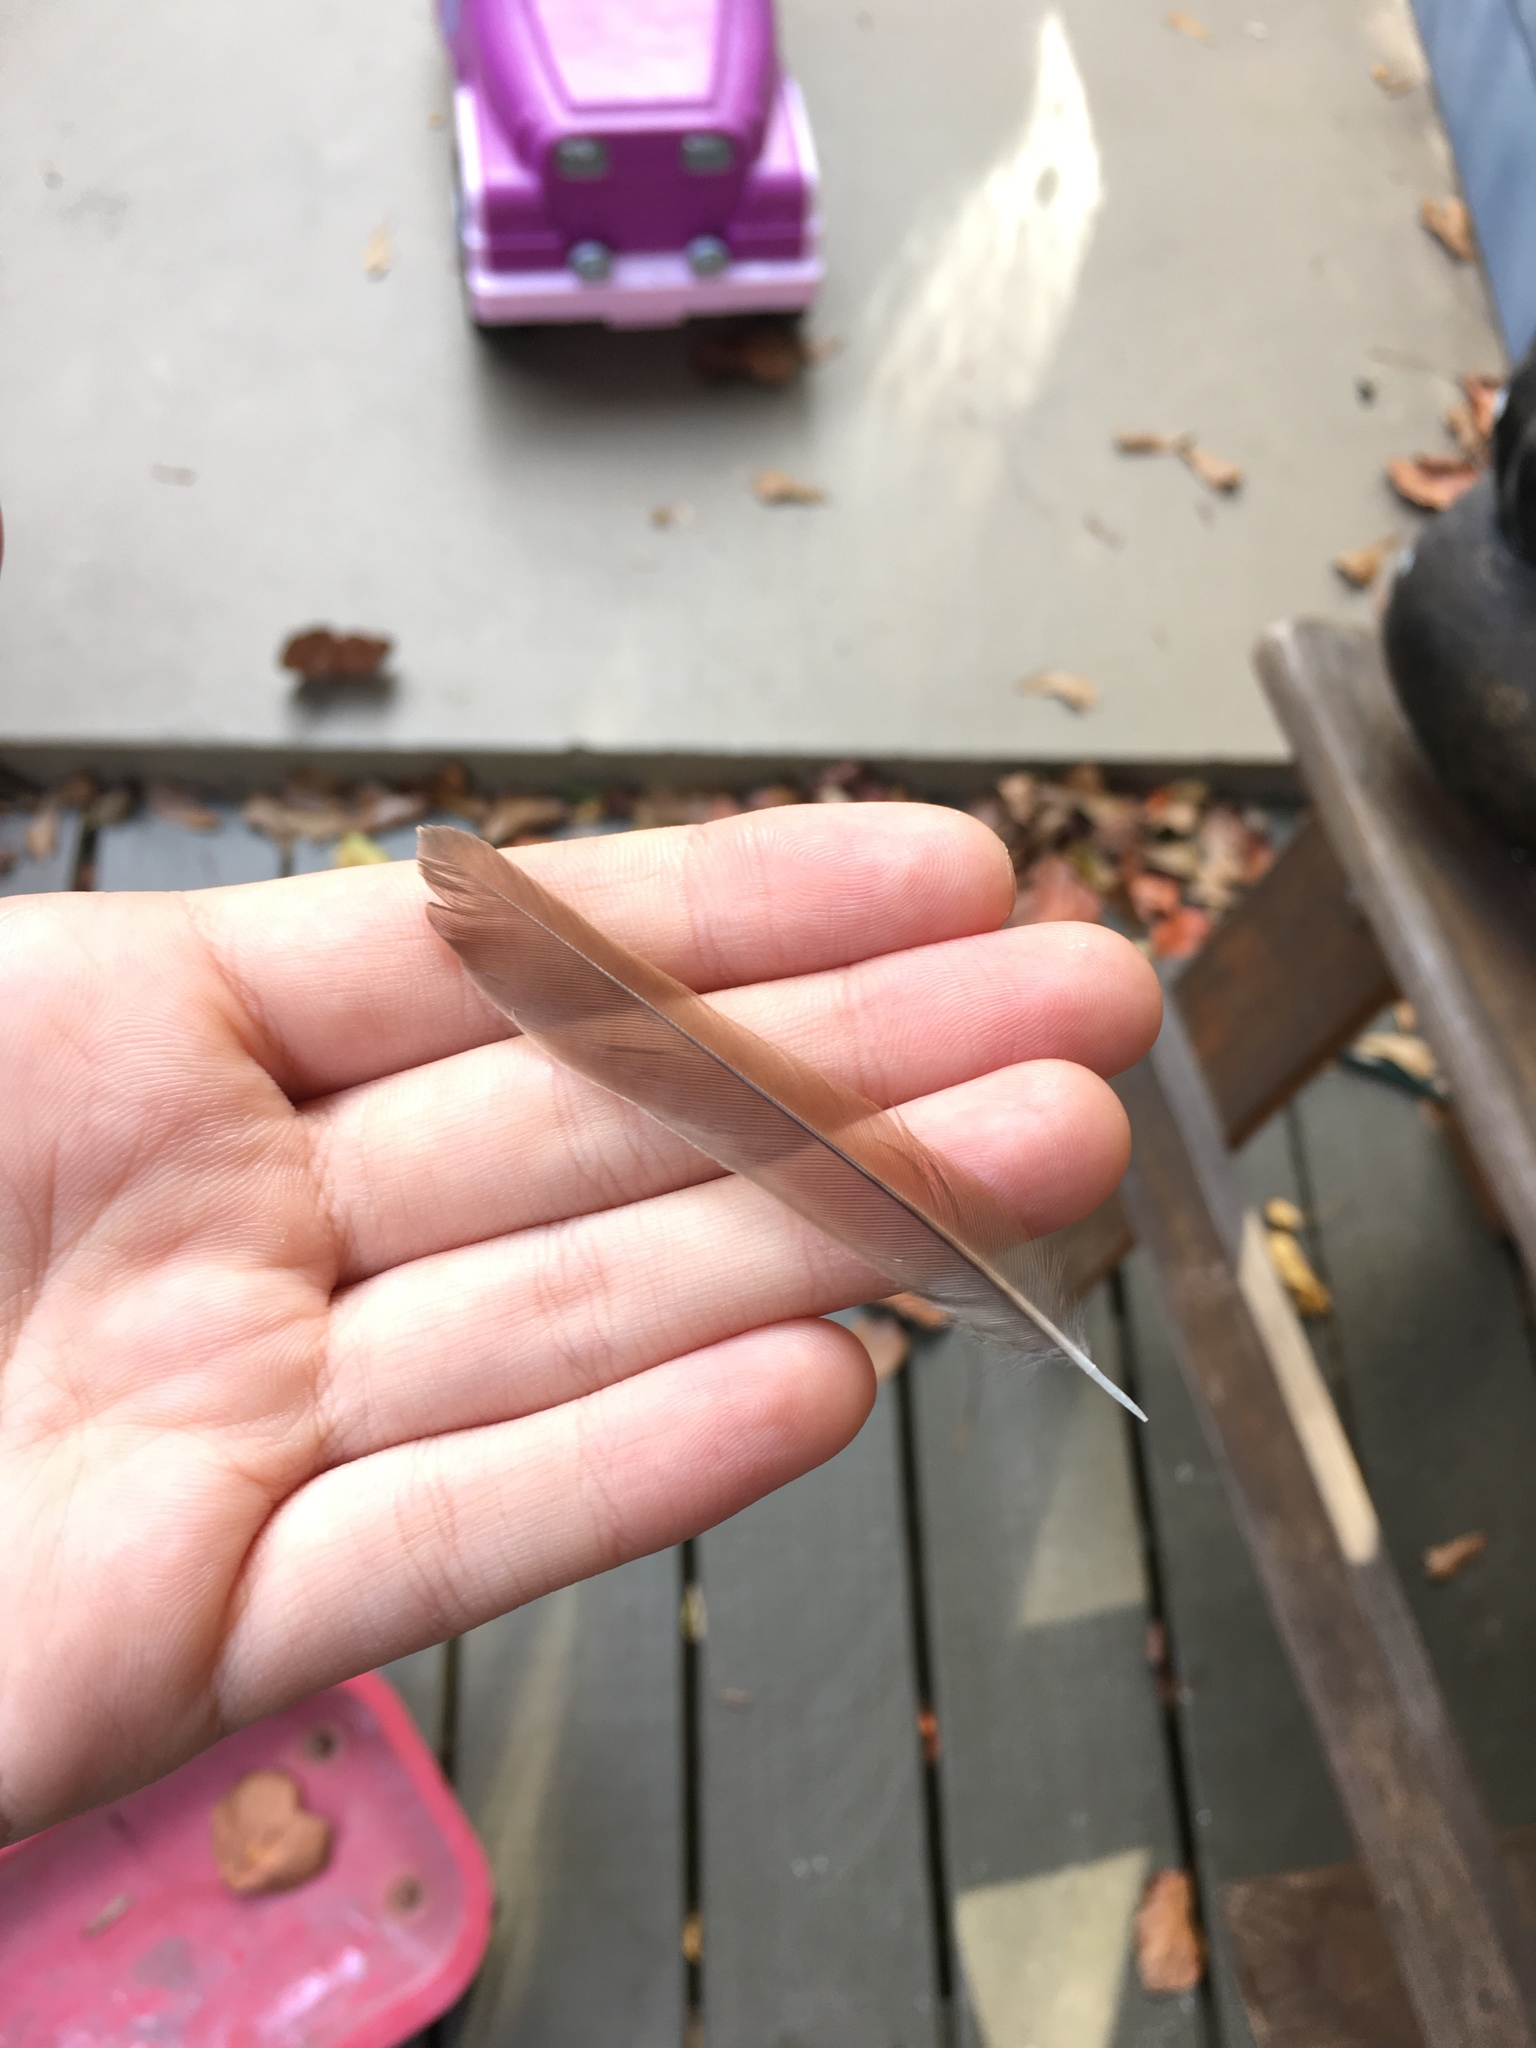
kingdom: Animalia
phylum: Chordata
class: Aves
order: Passeriformes
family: Turdidae
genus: Catharus
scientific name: Catharus guttatus
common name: Hermit thrush
